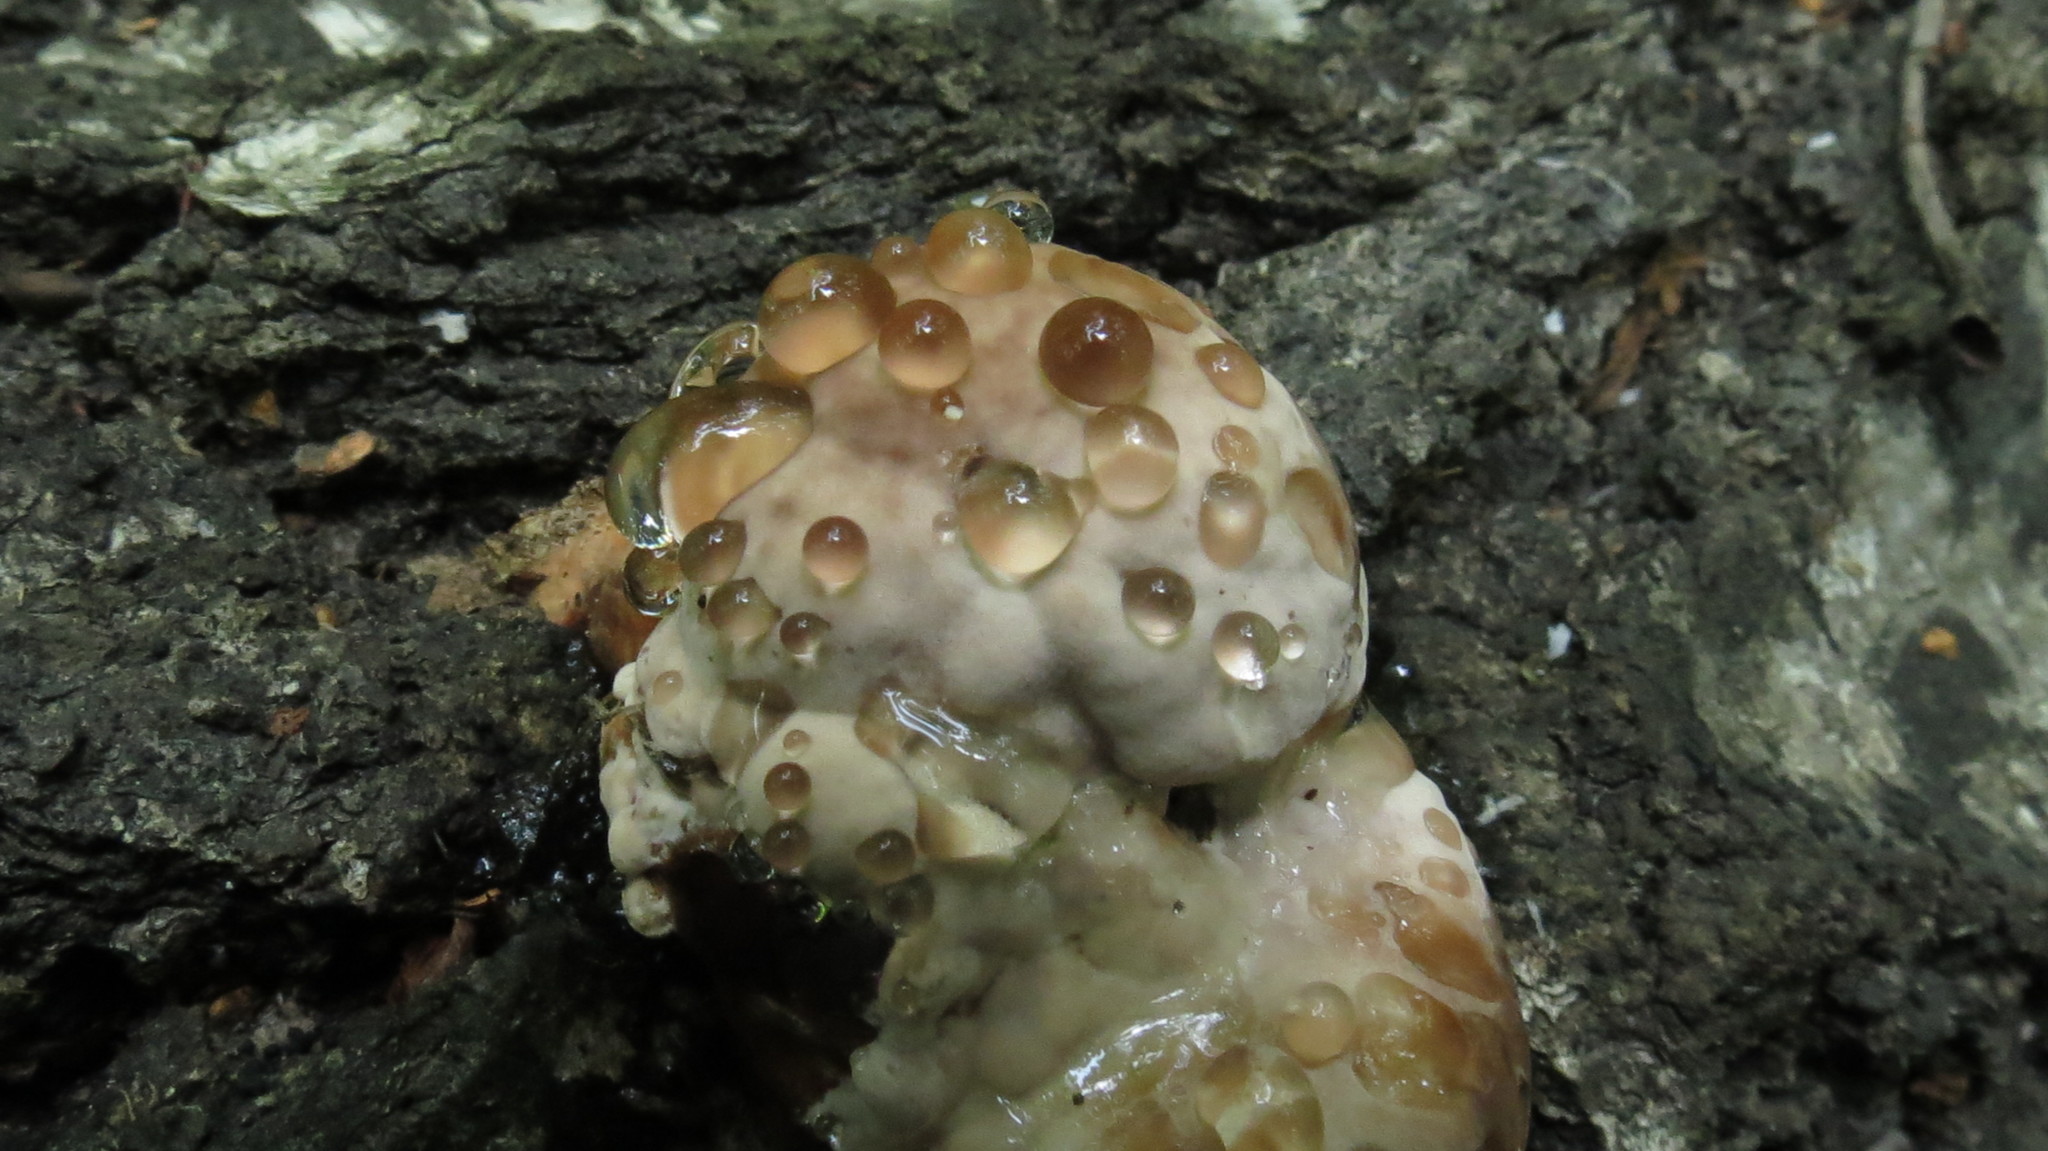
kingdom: Fungi
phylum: Basidiomycota
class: Agaricomycetes
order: Polyporales
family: Fomitopsidaceae
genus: Fomitopsis
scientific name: Fomitopsis pinicola
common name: Red-belted bracket
